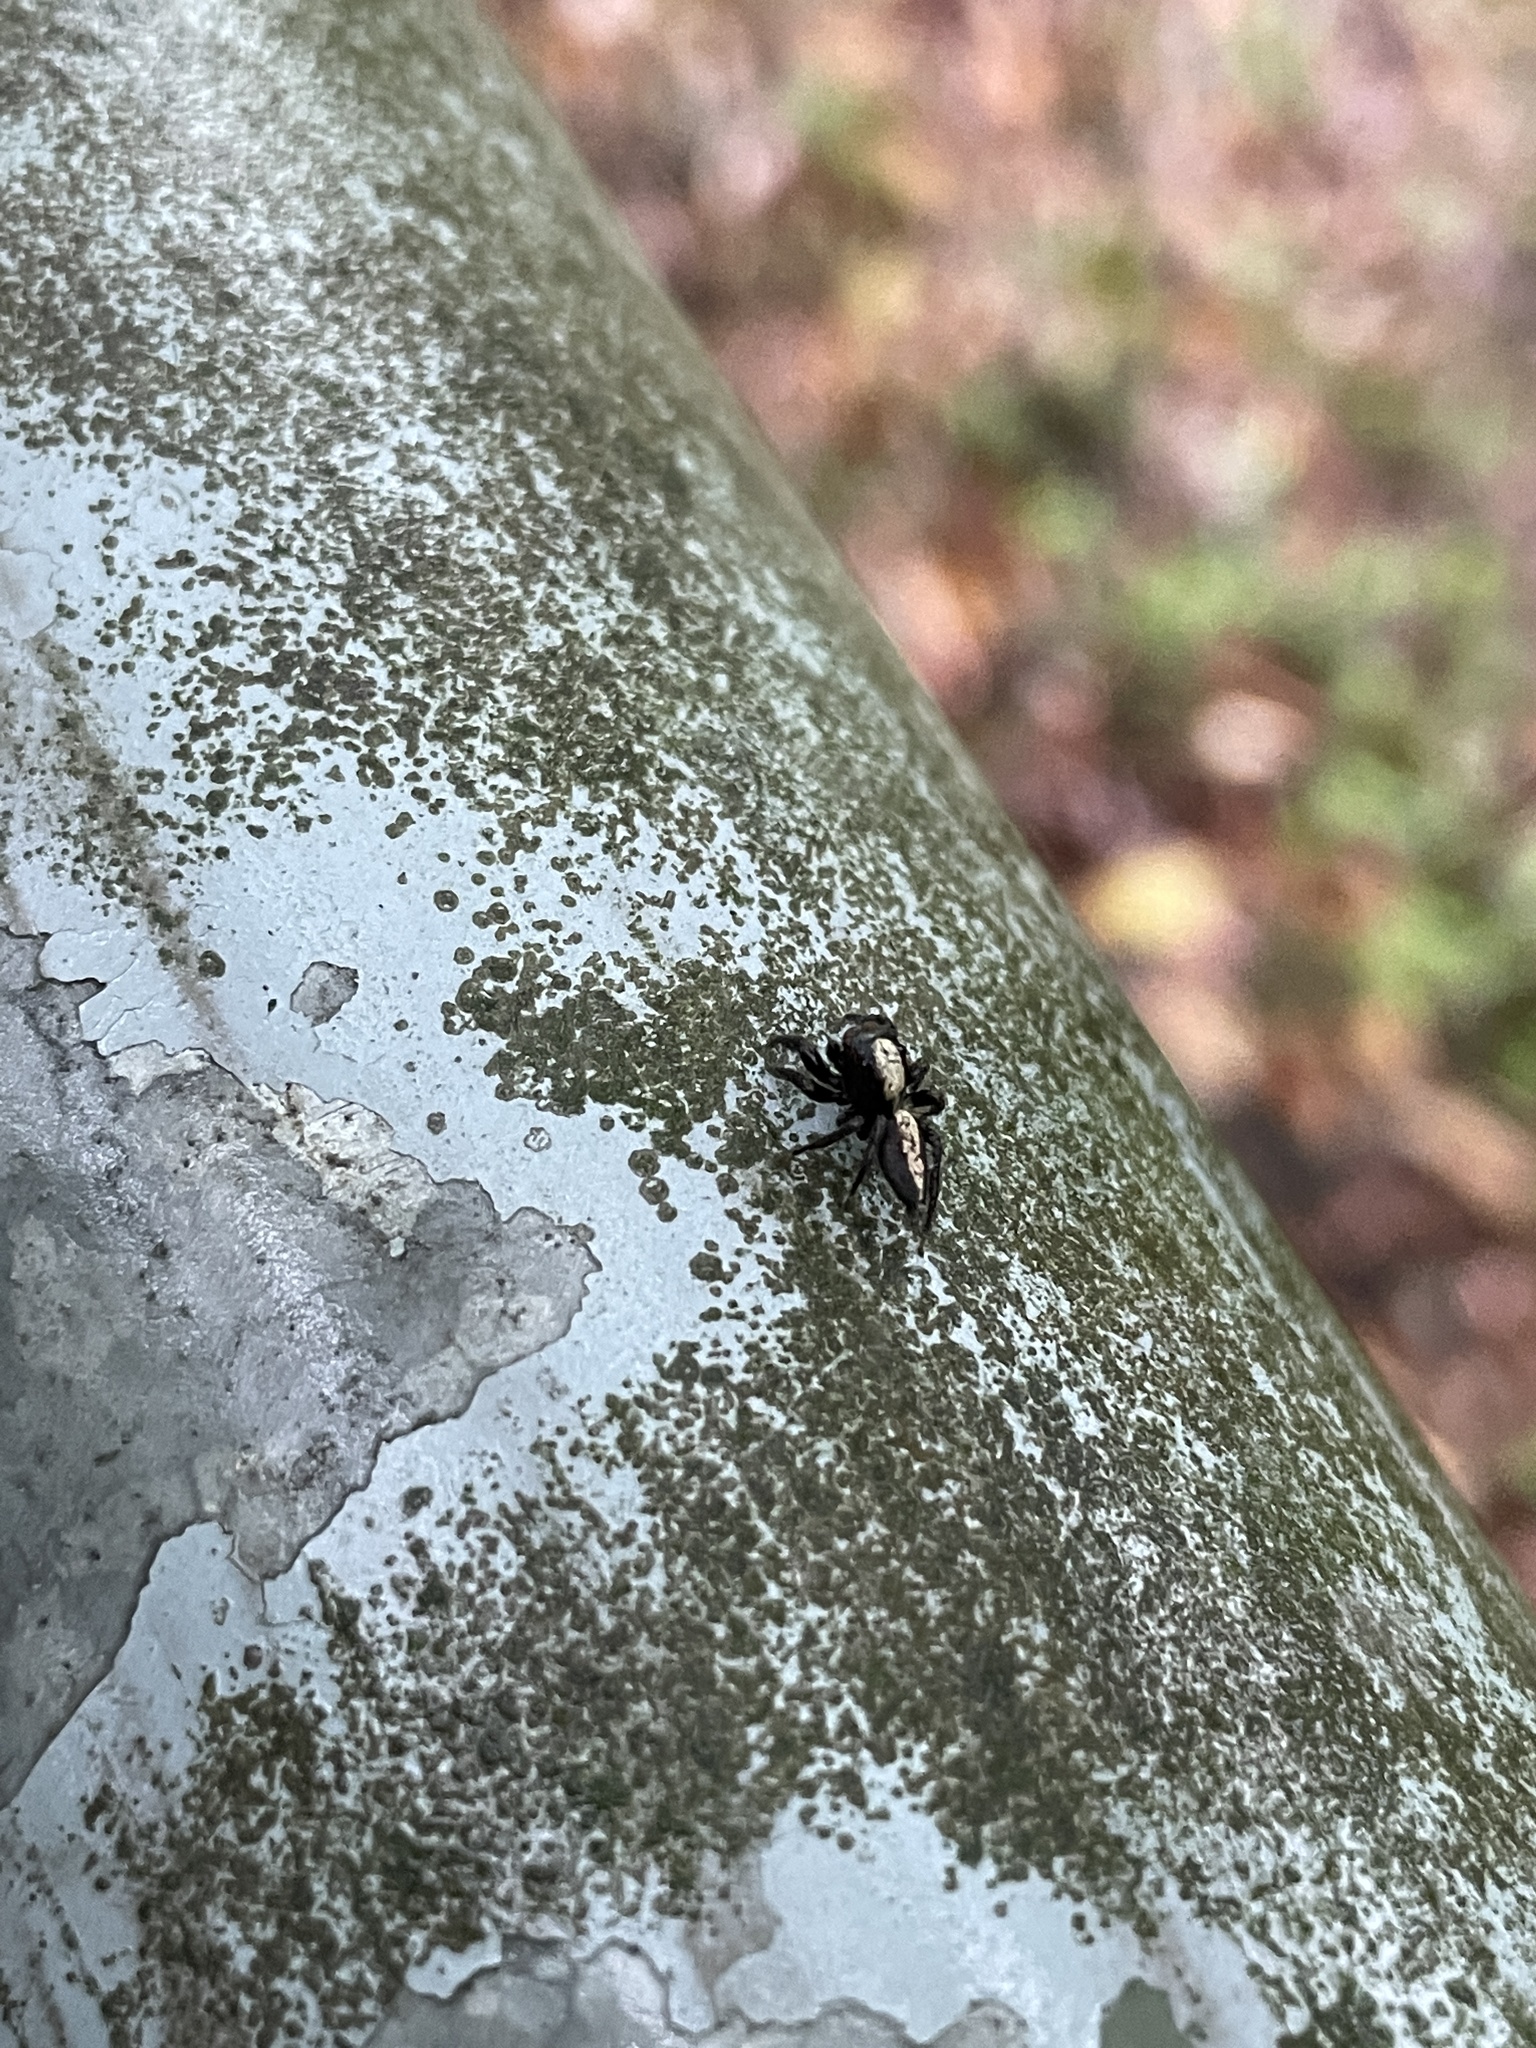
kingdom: Animalia
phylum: Arthropoda
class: Arachnida
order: Araneae
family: Salticidae
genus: Thyene
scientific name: Thyene orientalis
